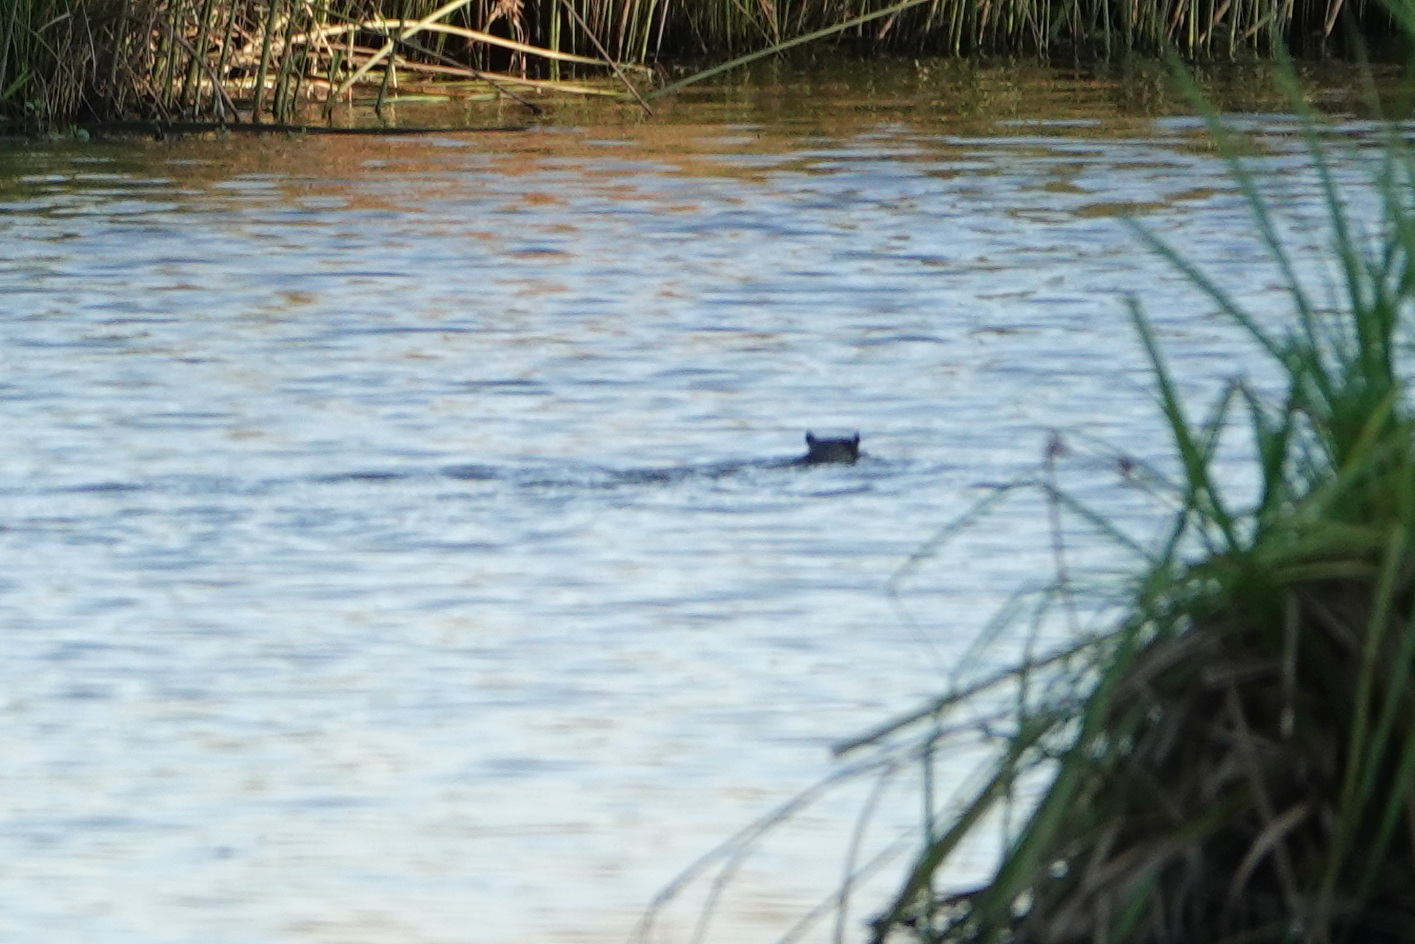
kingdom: Animalia
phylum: Chordata
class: Mammalia
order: Rodentia
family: Muridae
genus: Hydromys
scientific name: Hydromys chrysogaster
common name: Common water rat
